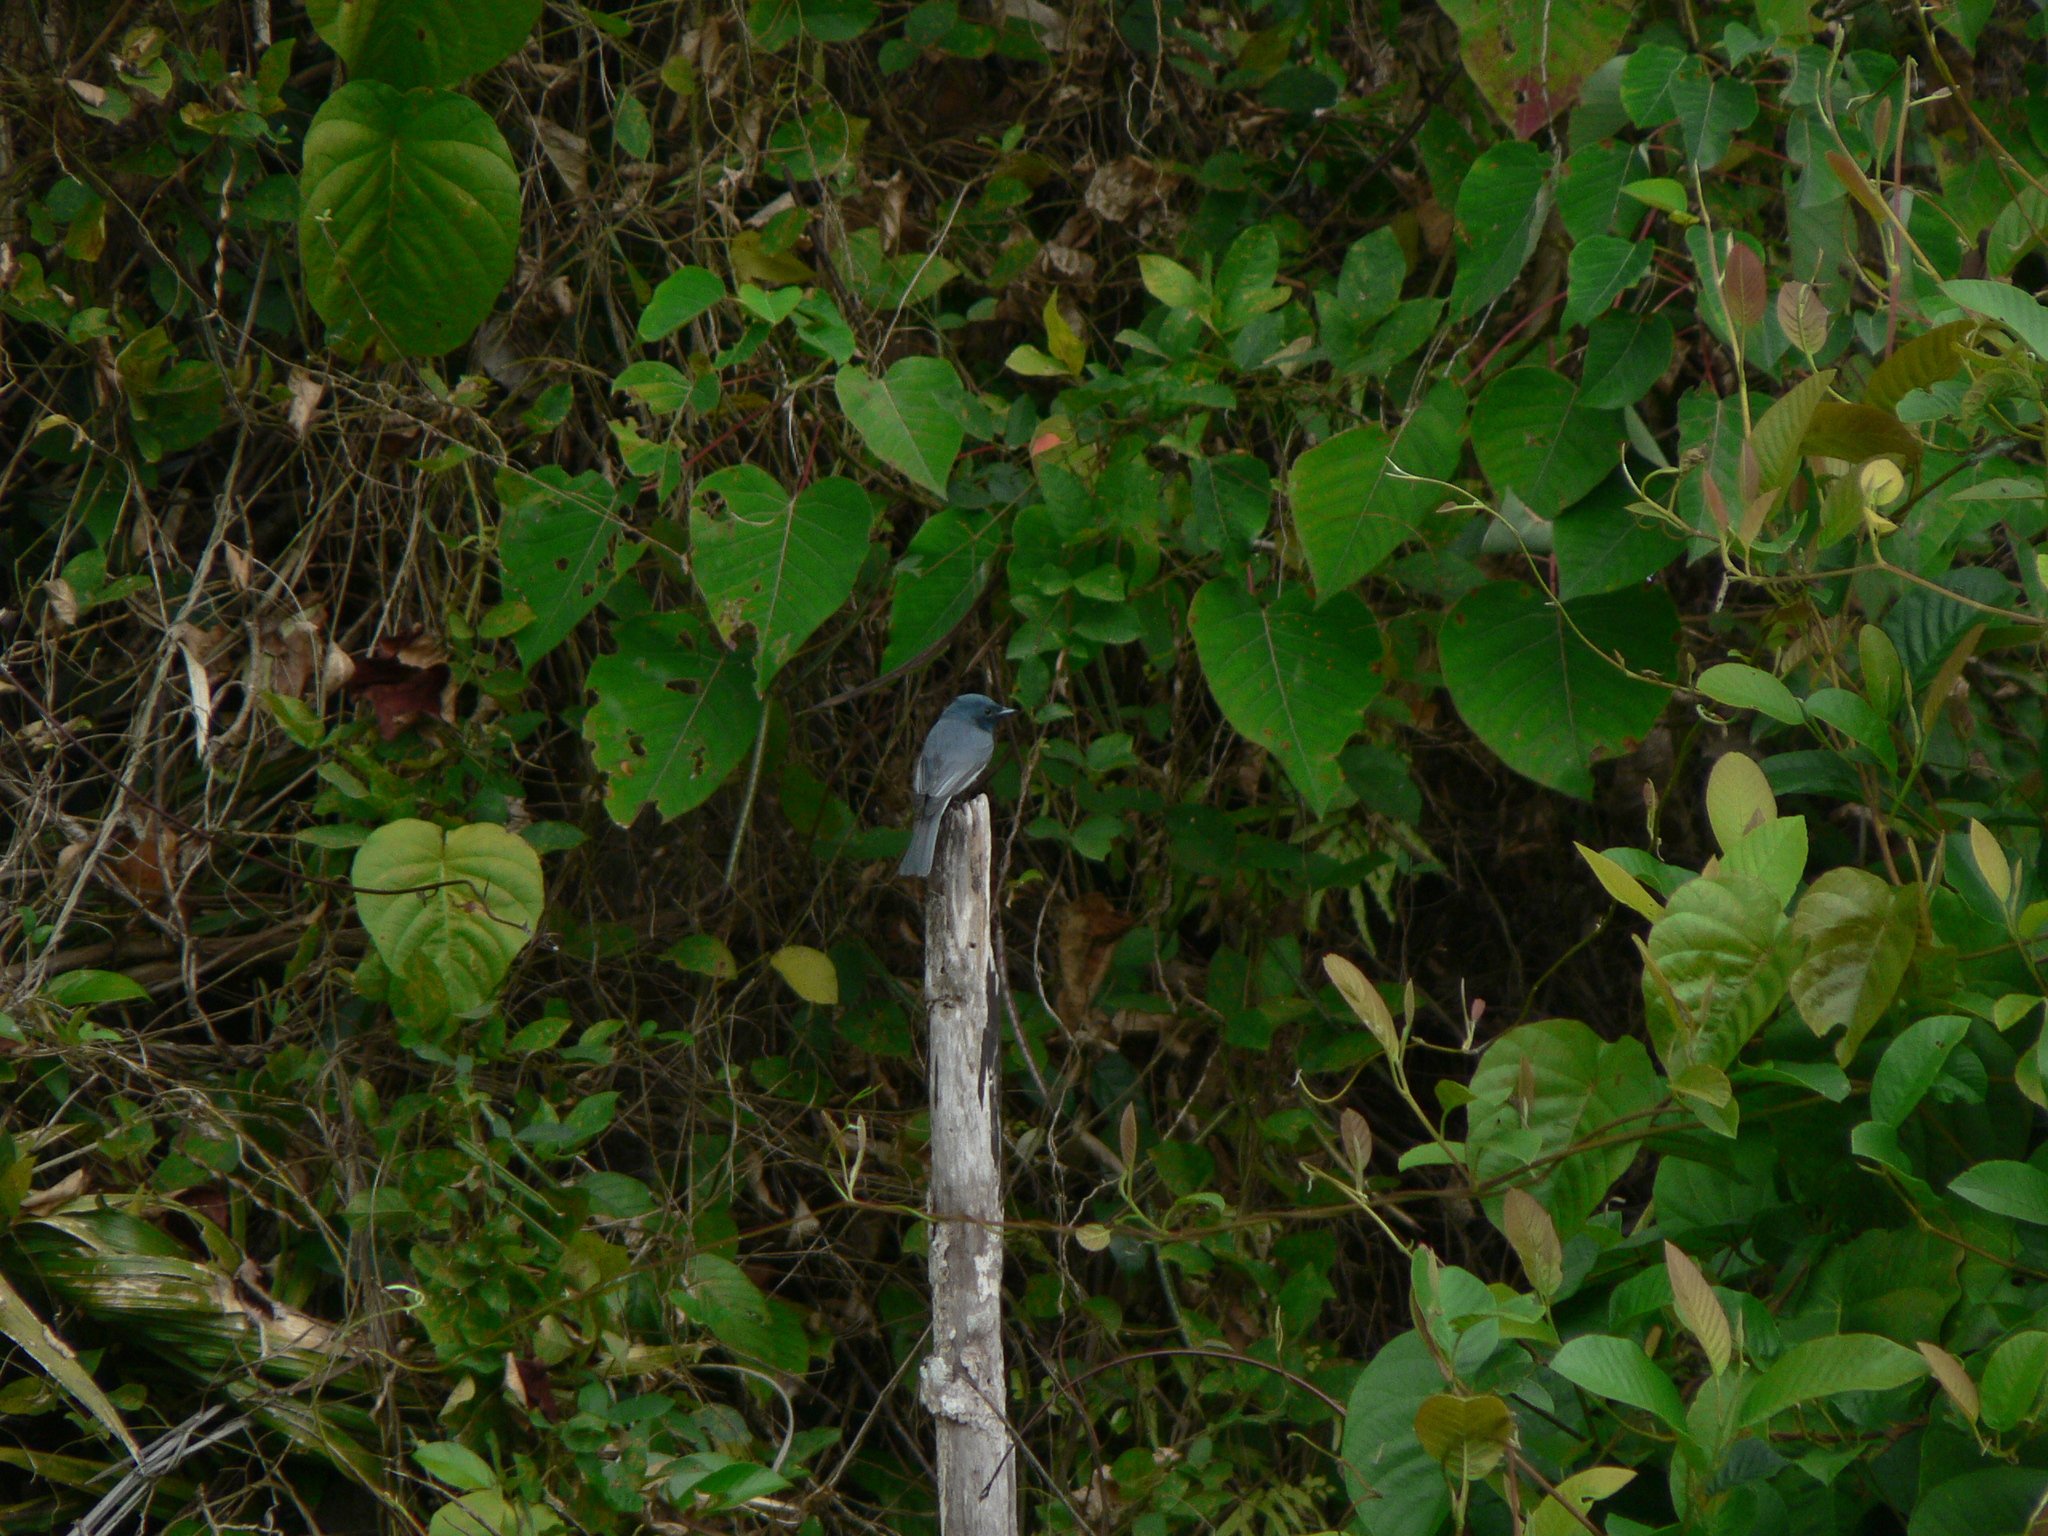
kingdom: Animalia
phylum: Chordata
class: Aves
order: Passeriformes
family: Monarchidae
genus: Myiagra
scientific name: Myiagra rubecula
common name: Leaden flycatcher
